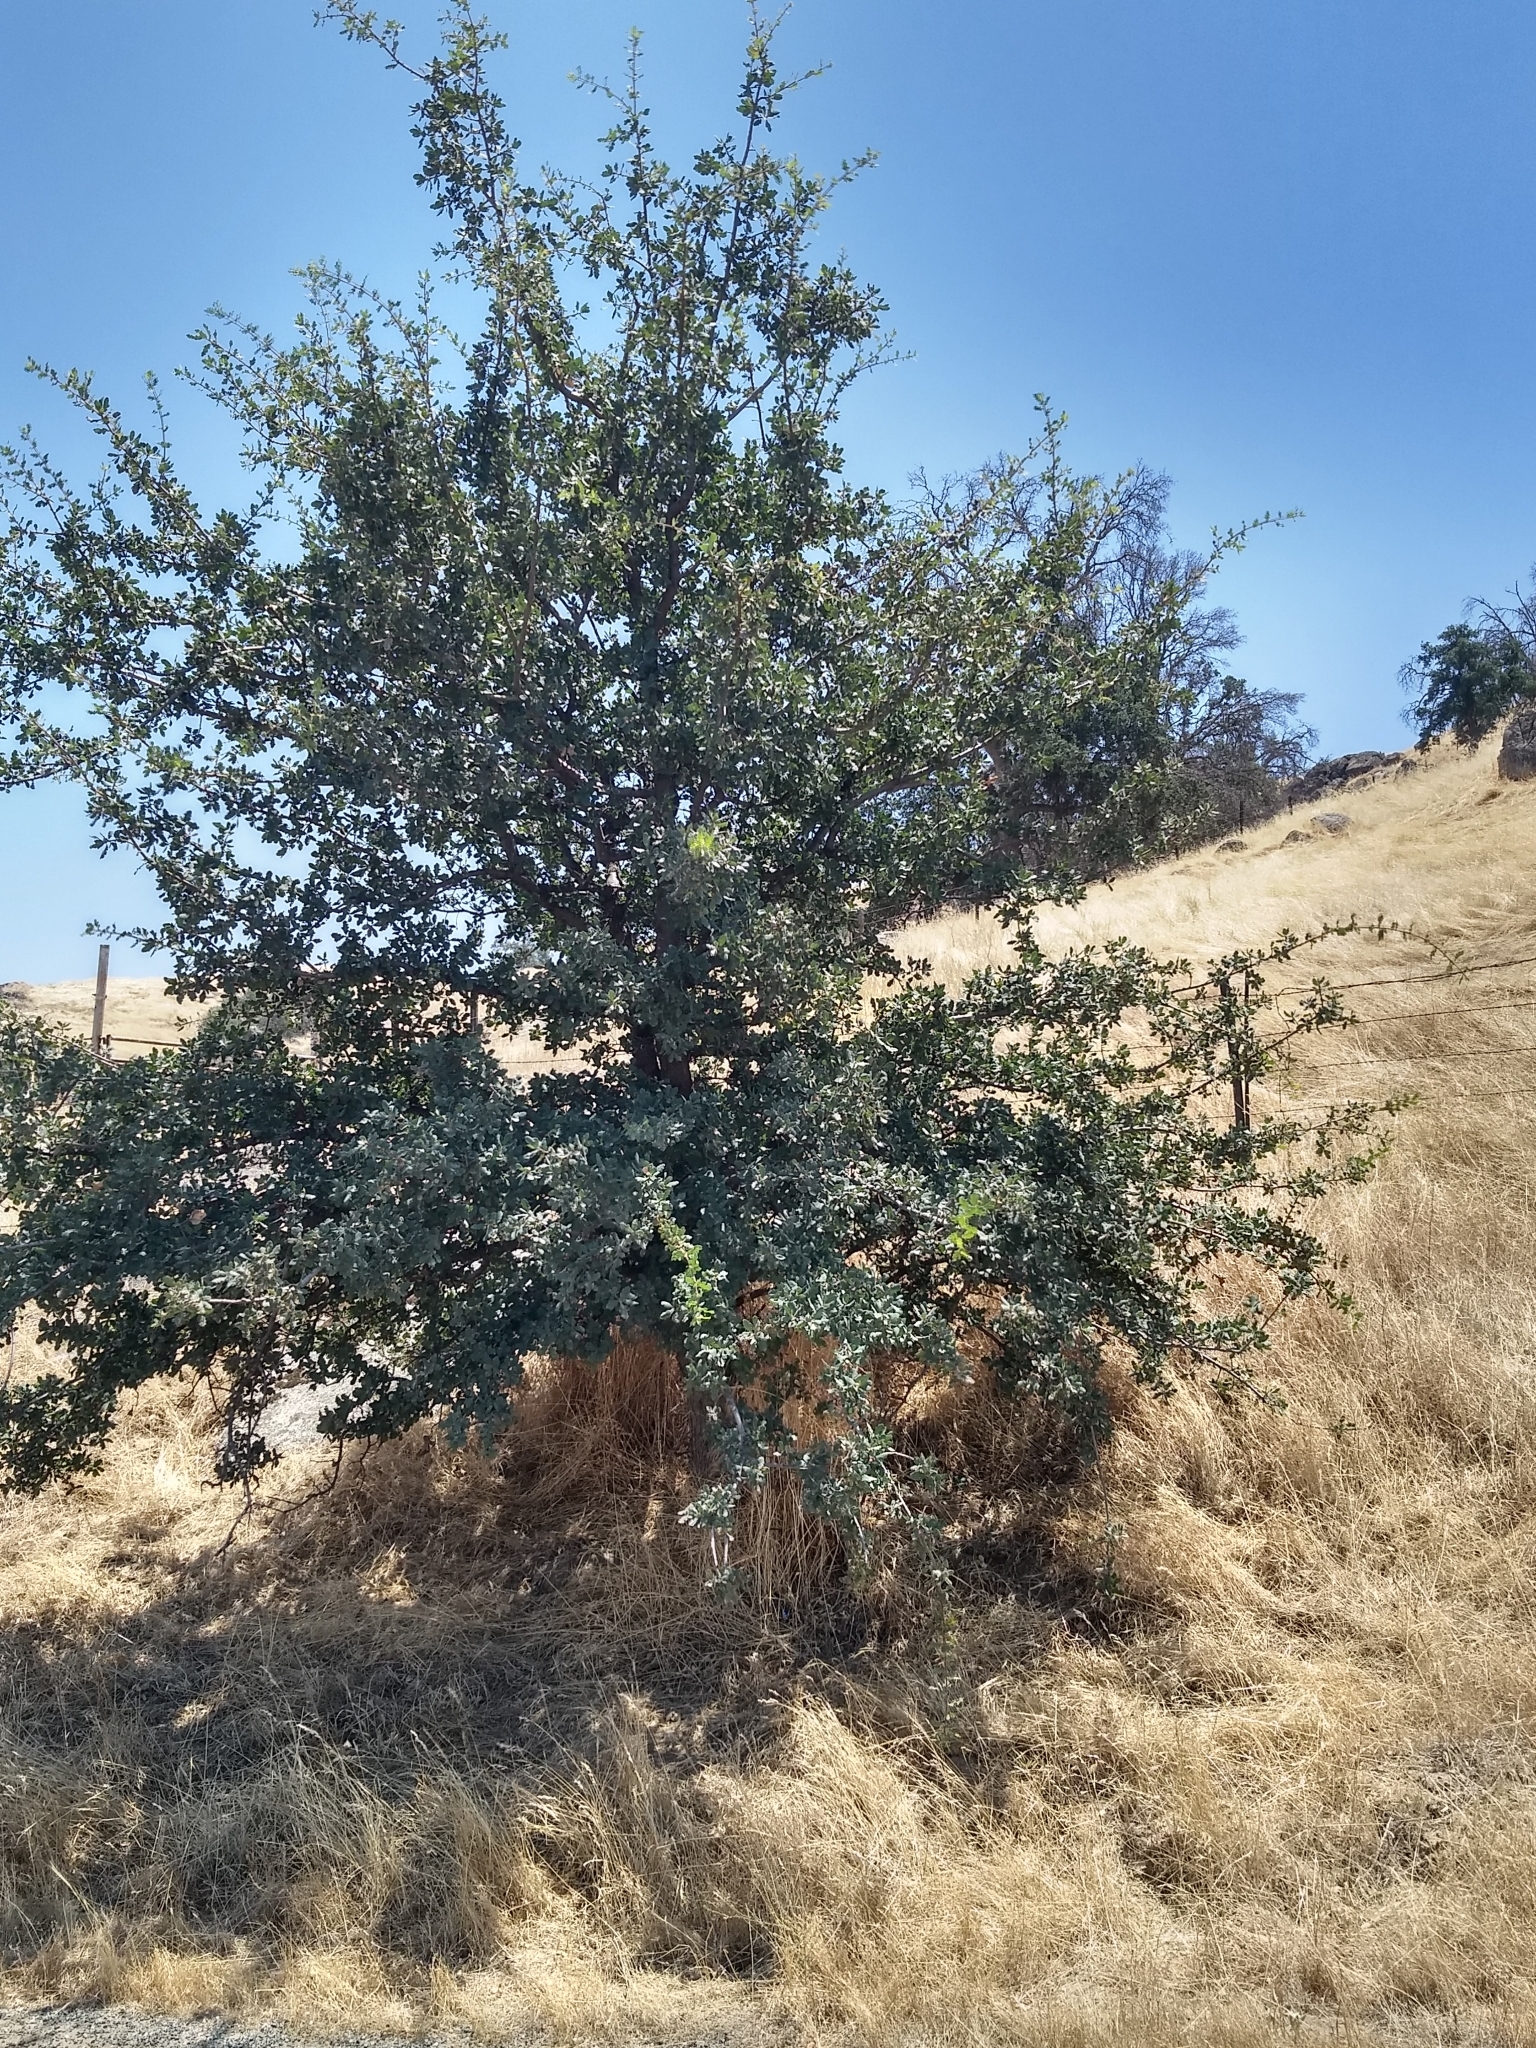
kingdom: Plantae
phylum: Tracheophyta
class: Magnoliopsida
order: Fagales
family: Fagaceae
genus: Quercus
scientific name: Quercus douglasii
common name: Blue oak
